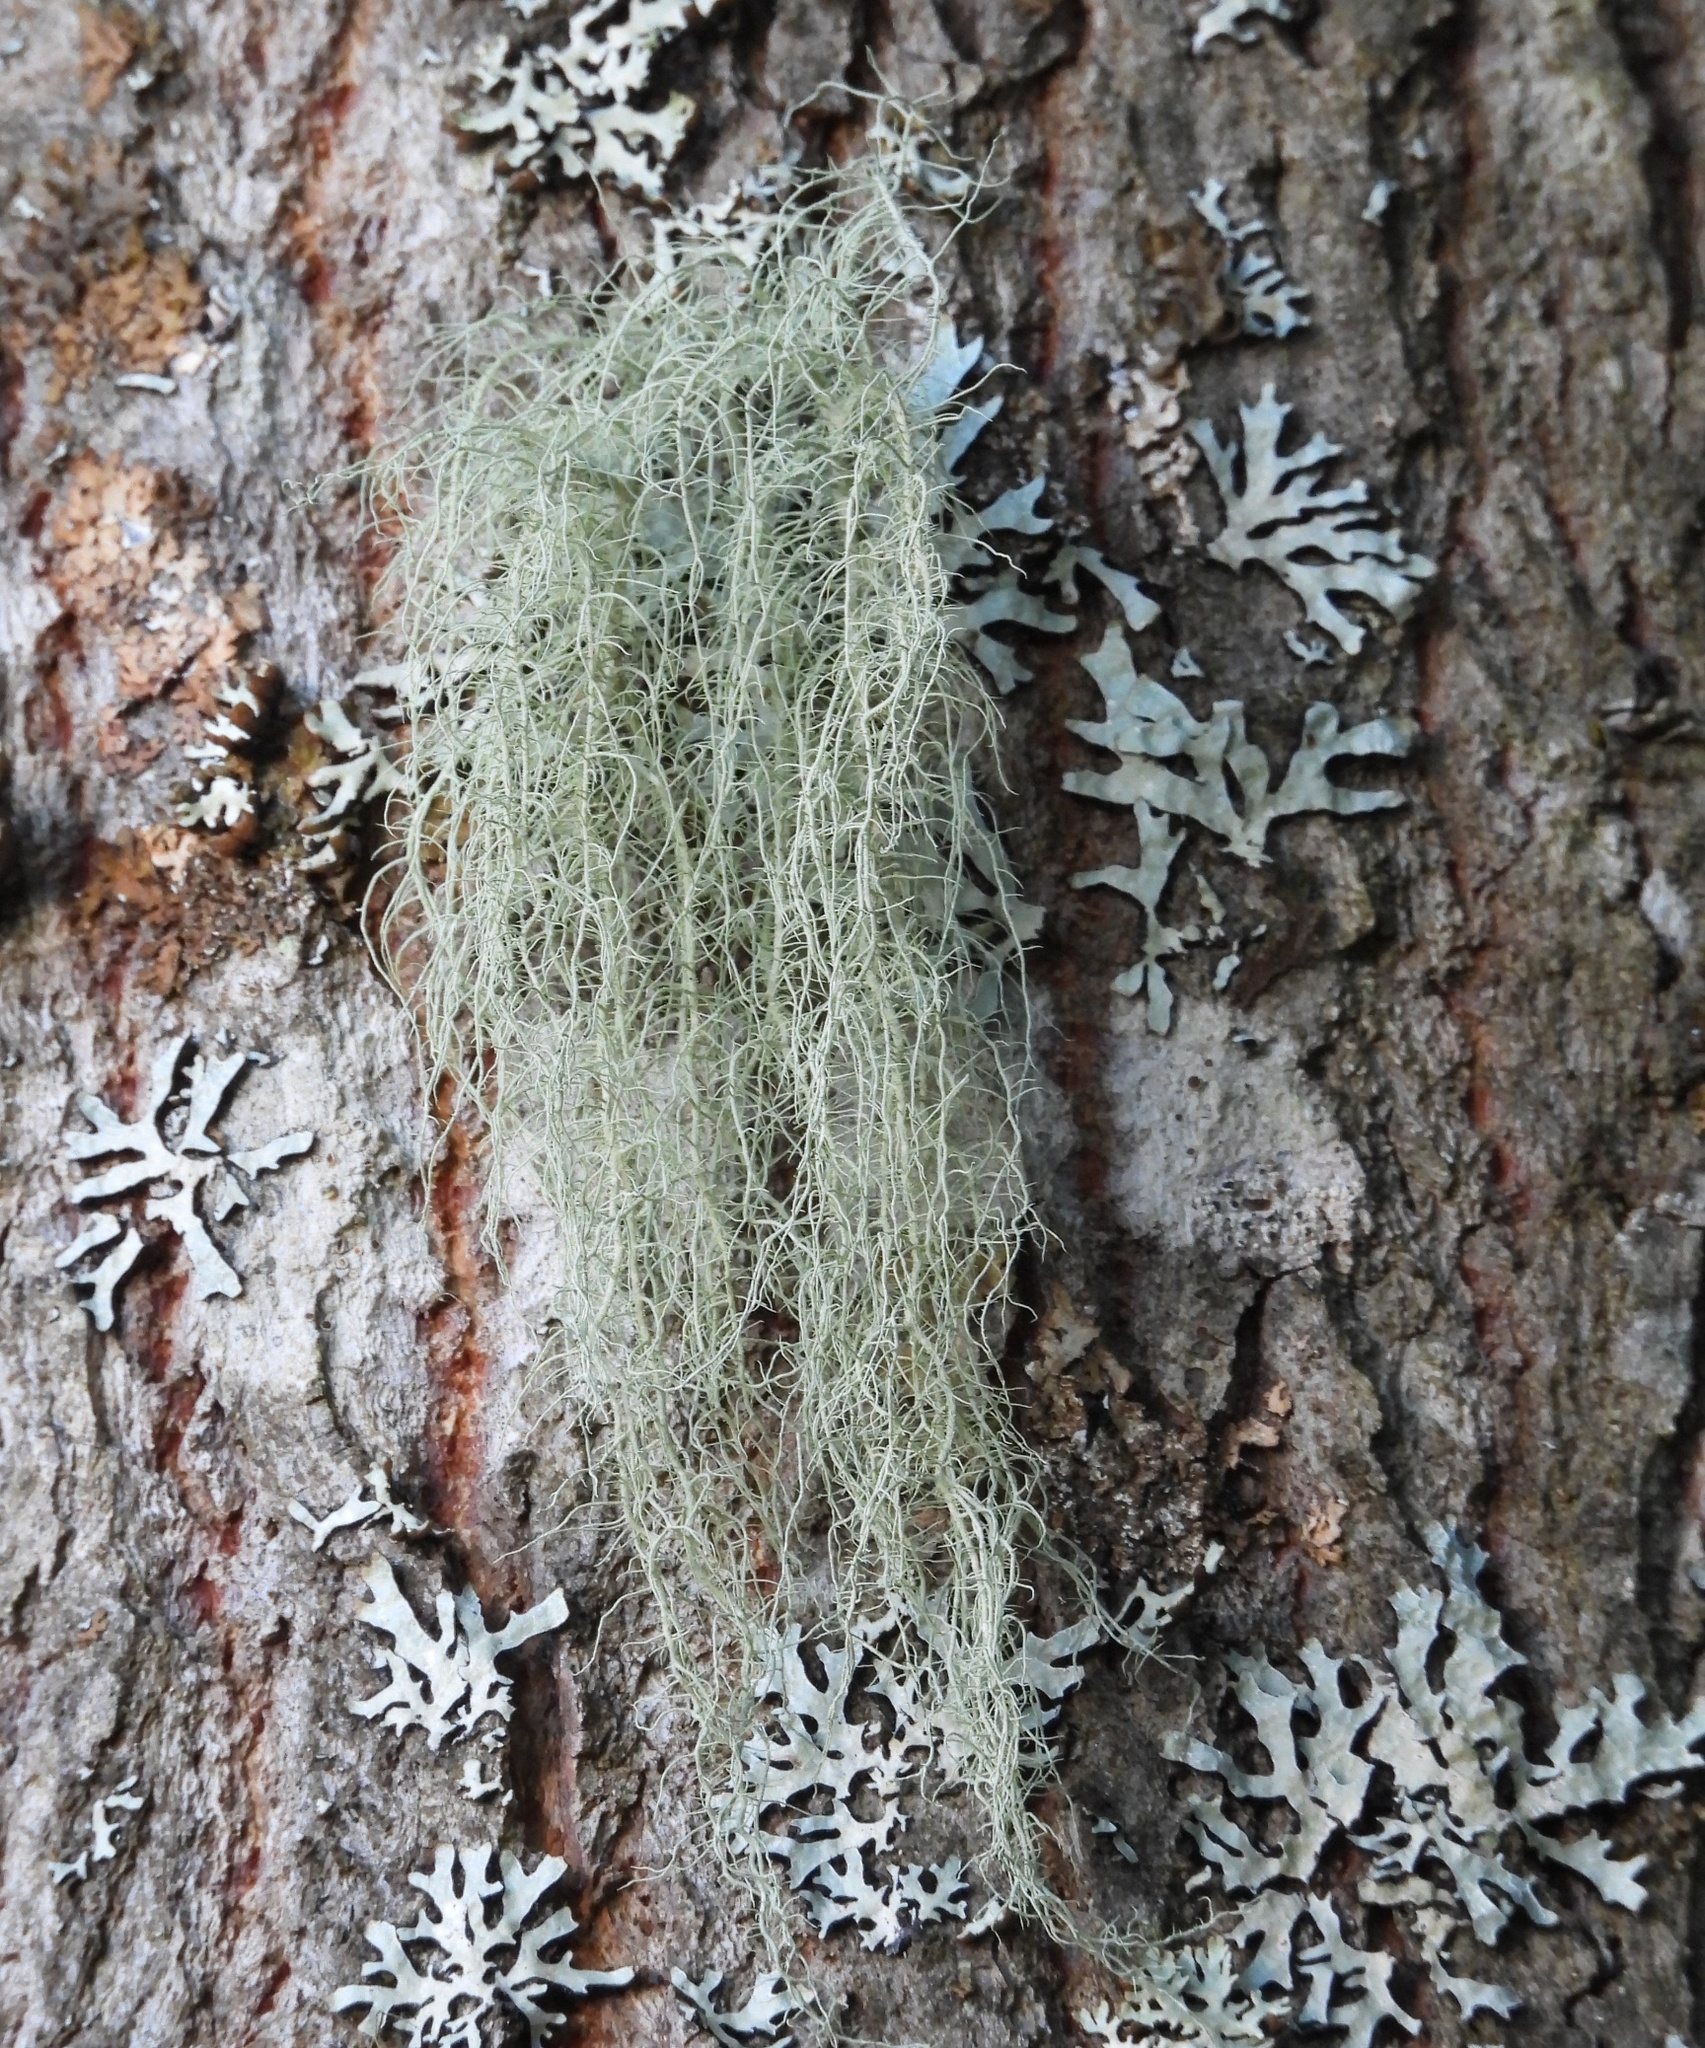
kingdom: Fungi
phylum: Ascomycota
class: Lecanoromycetes
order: Lecanorales
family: Parmeliaceae
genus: Usnea
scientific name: Usnea dasopoga
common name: Fishbone beard lichen
